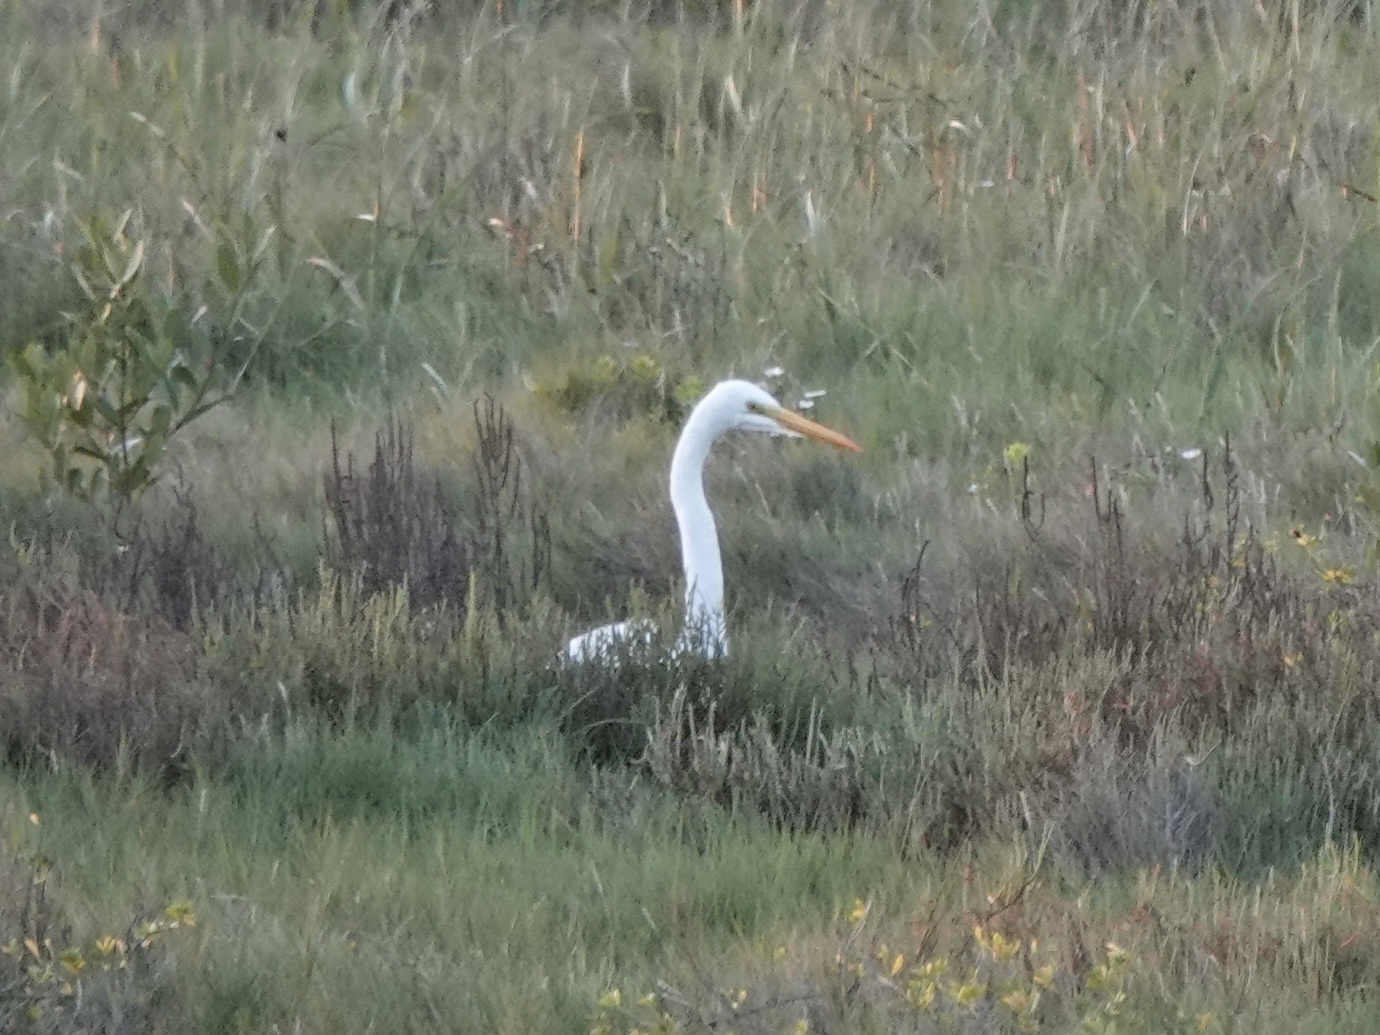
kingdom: Animalia
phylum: Chordata
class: Aves
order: Pelecaniformes
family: Ardeidae
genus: Ardea
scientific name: Ardea alba
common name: Great egret
